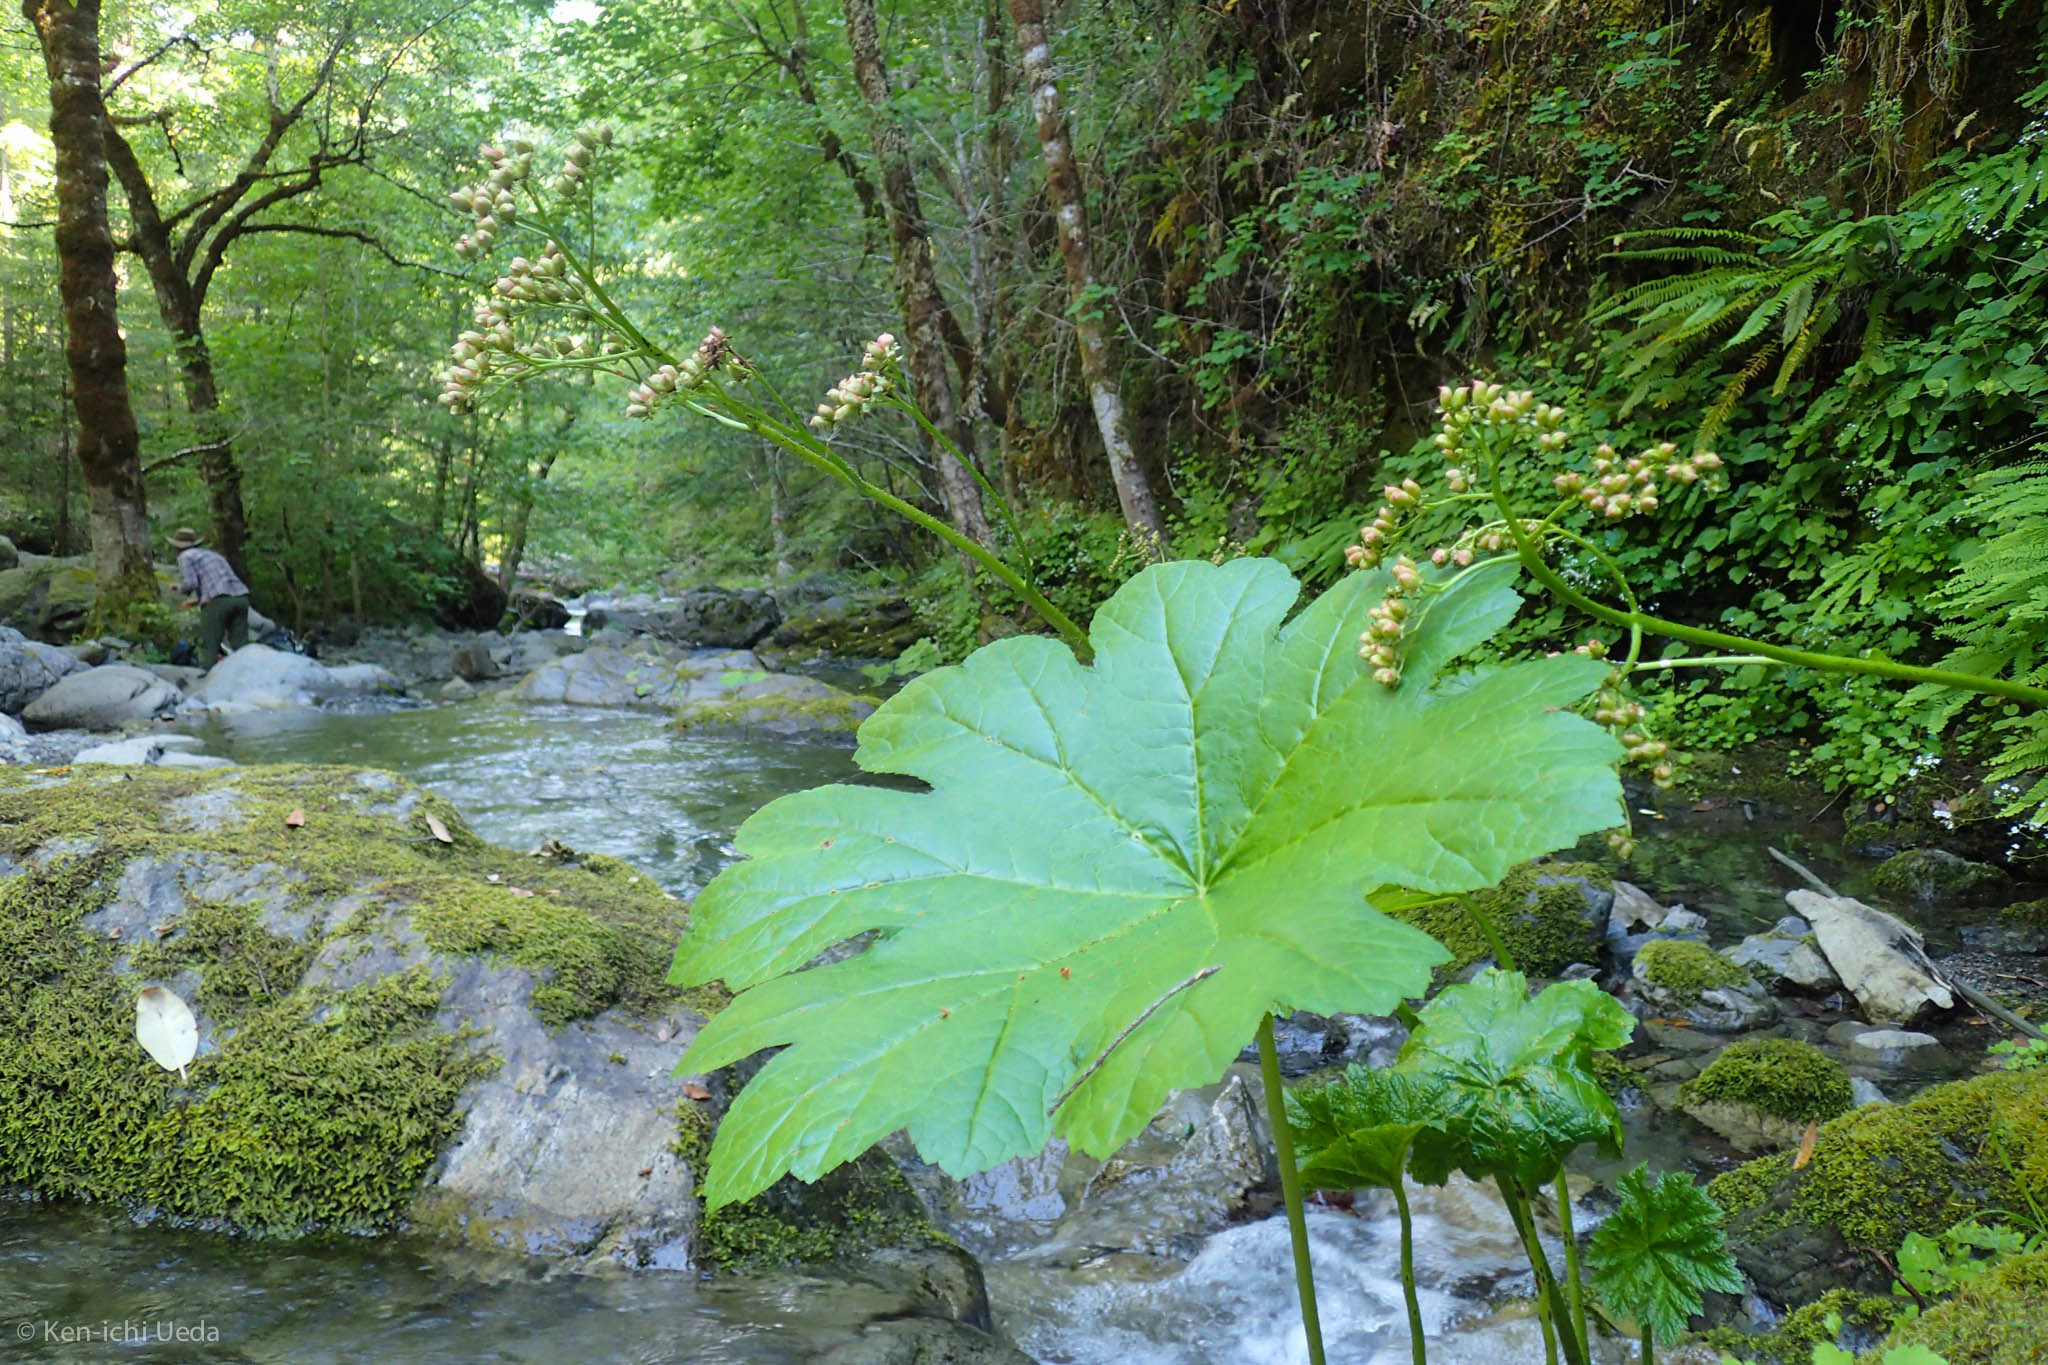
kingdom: Plantae
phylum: Tracheophyta
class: Magnoliopsida
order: Saxifragales
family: Saxifragaceae
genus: Darmera
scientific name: Darmera peltata
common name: Indian-rhubarb
